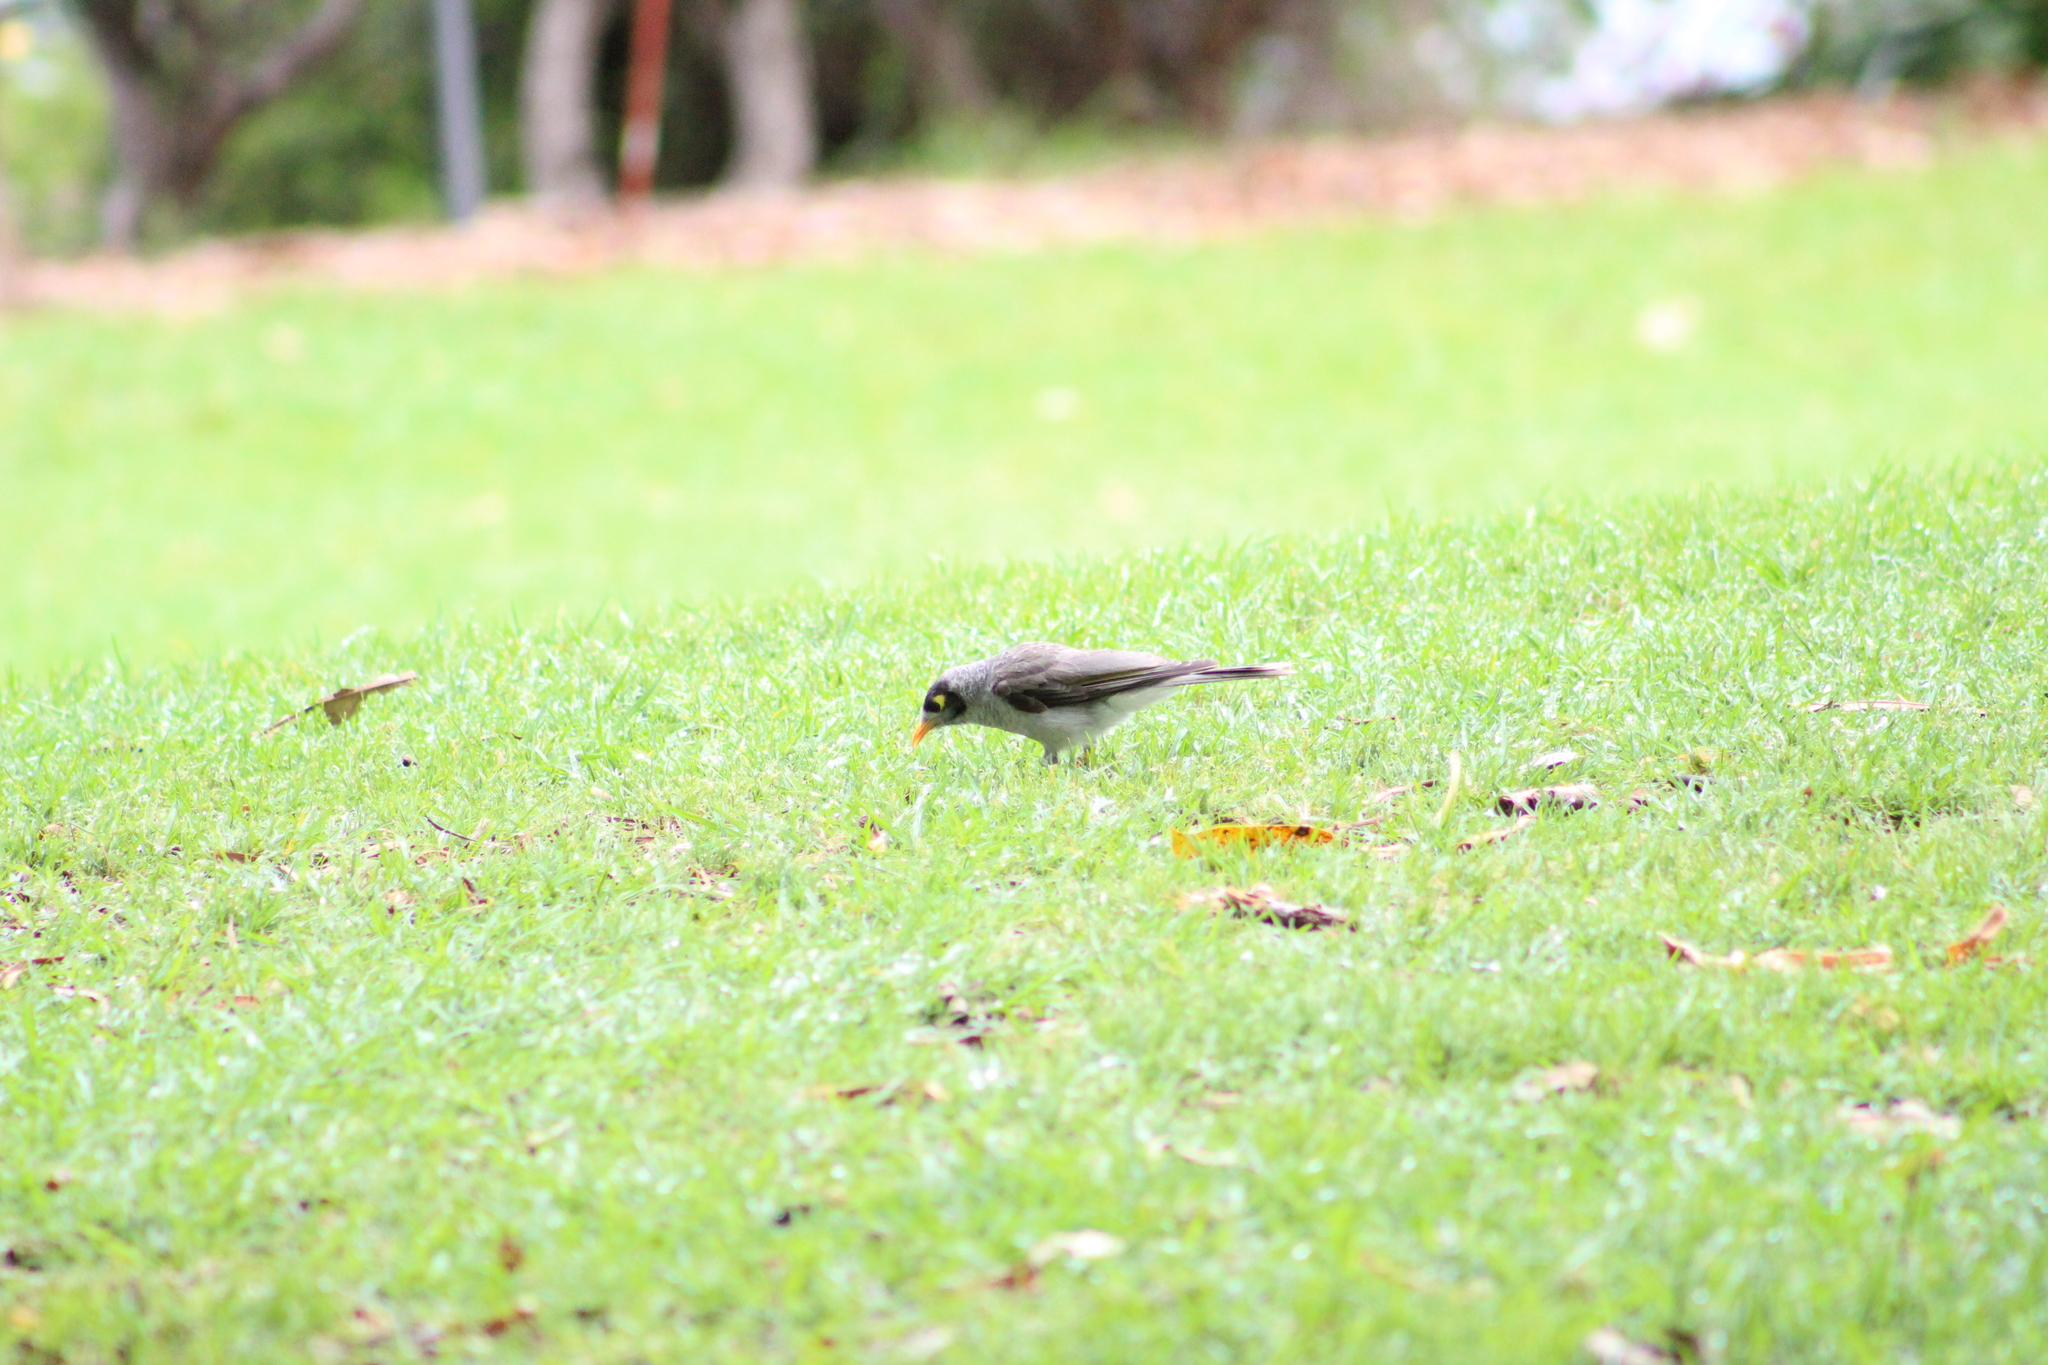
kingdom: Animalia
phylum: Chordata
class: Aves
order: Passeriformes
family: Meliphagidae
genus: Manorina
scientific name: Manorina melanocephala
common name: Noisy miner
